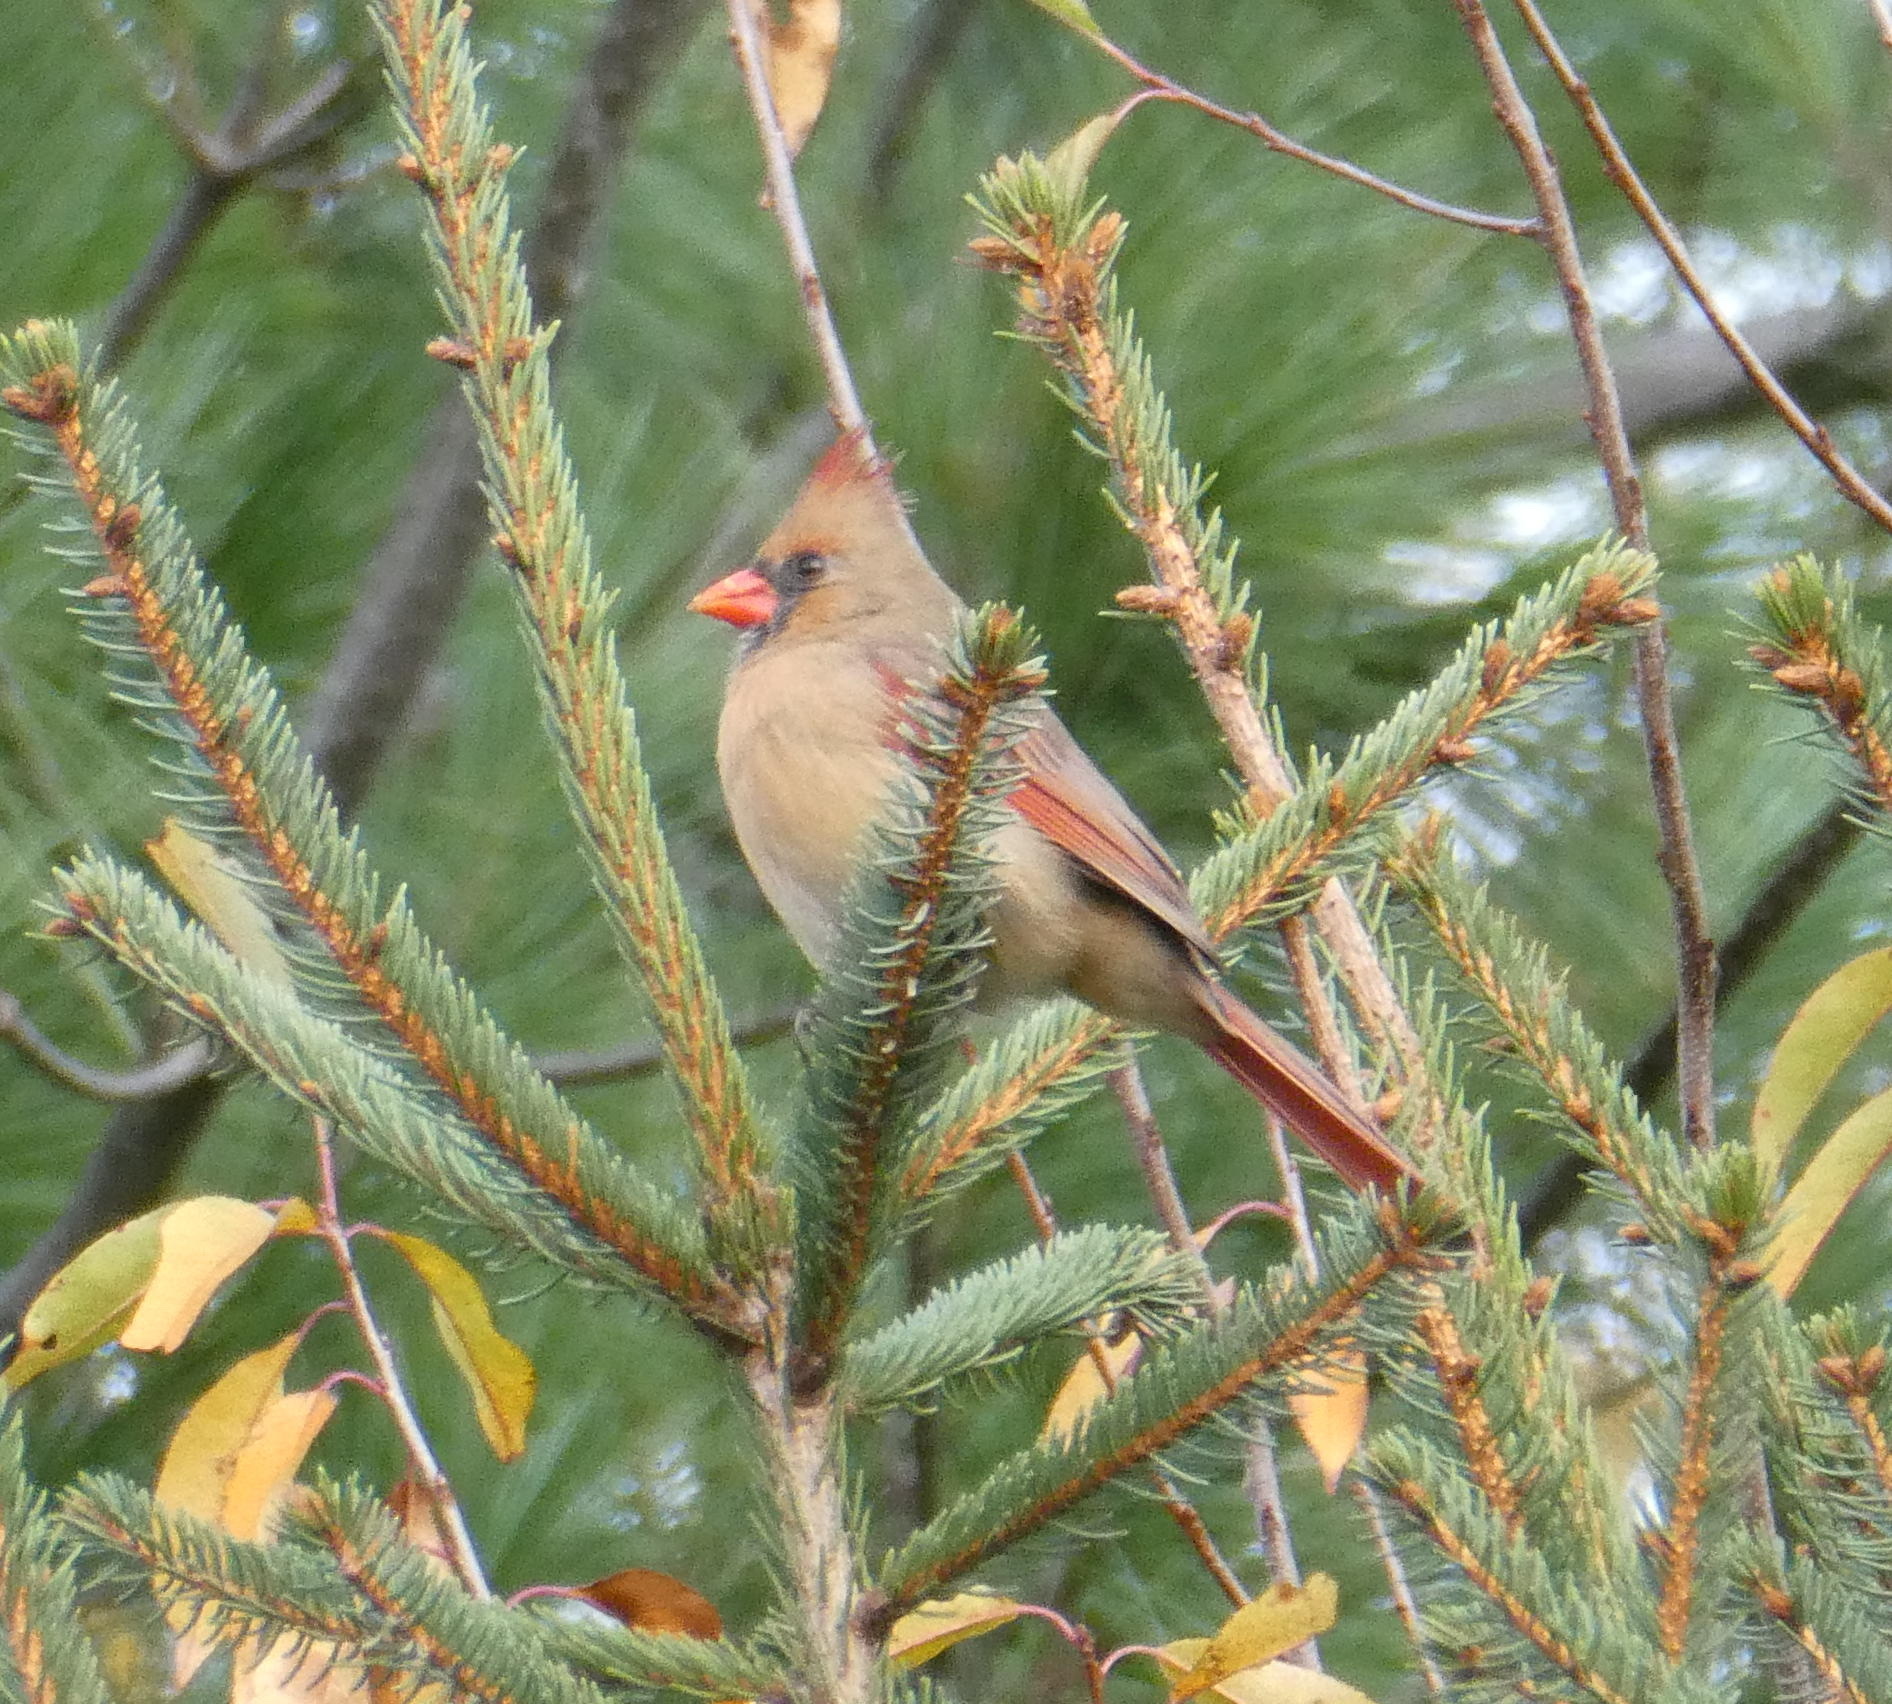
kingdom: Animalia
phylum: Chordata
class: Aves
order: Passeriformes
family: Cardinalidae
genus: Cardinalis
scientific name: Cardinalis cardinalis
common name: Northern cardinal
